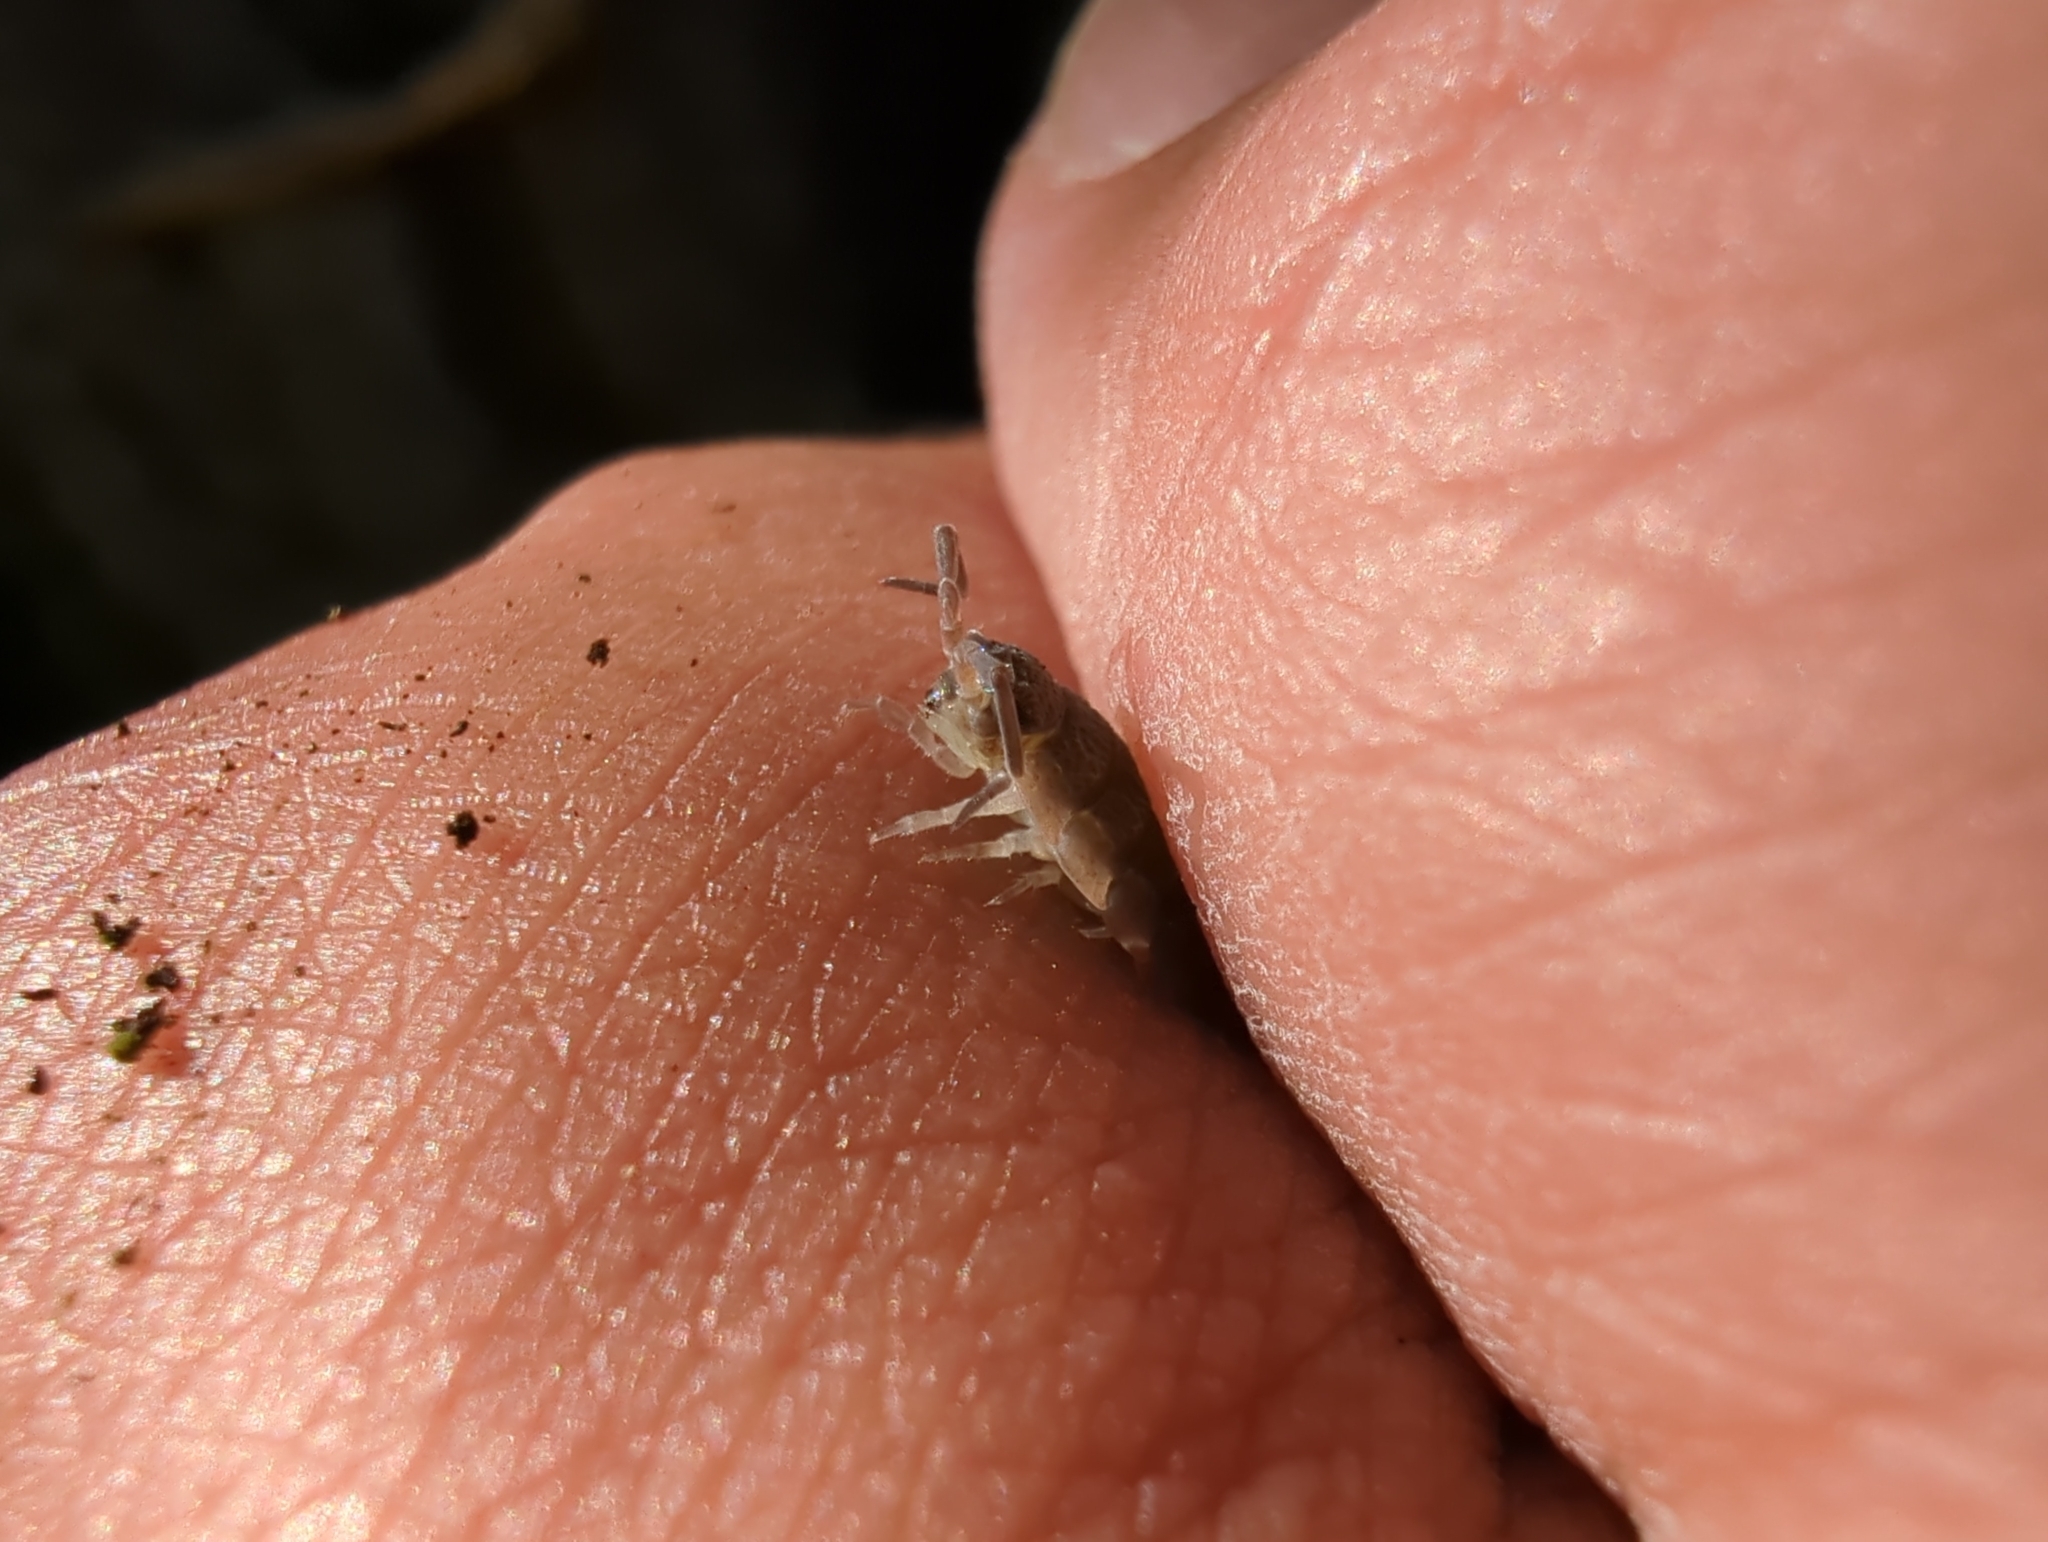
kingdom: Animalia
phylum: Arthropoda
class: Malacostraca
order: Isopoda
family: Porcellionidae
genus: Porcellio
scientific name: Porcellio scaber
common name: Common rough woodlouse
